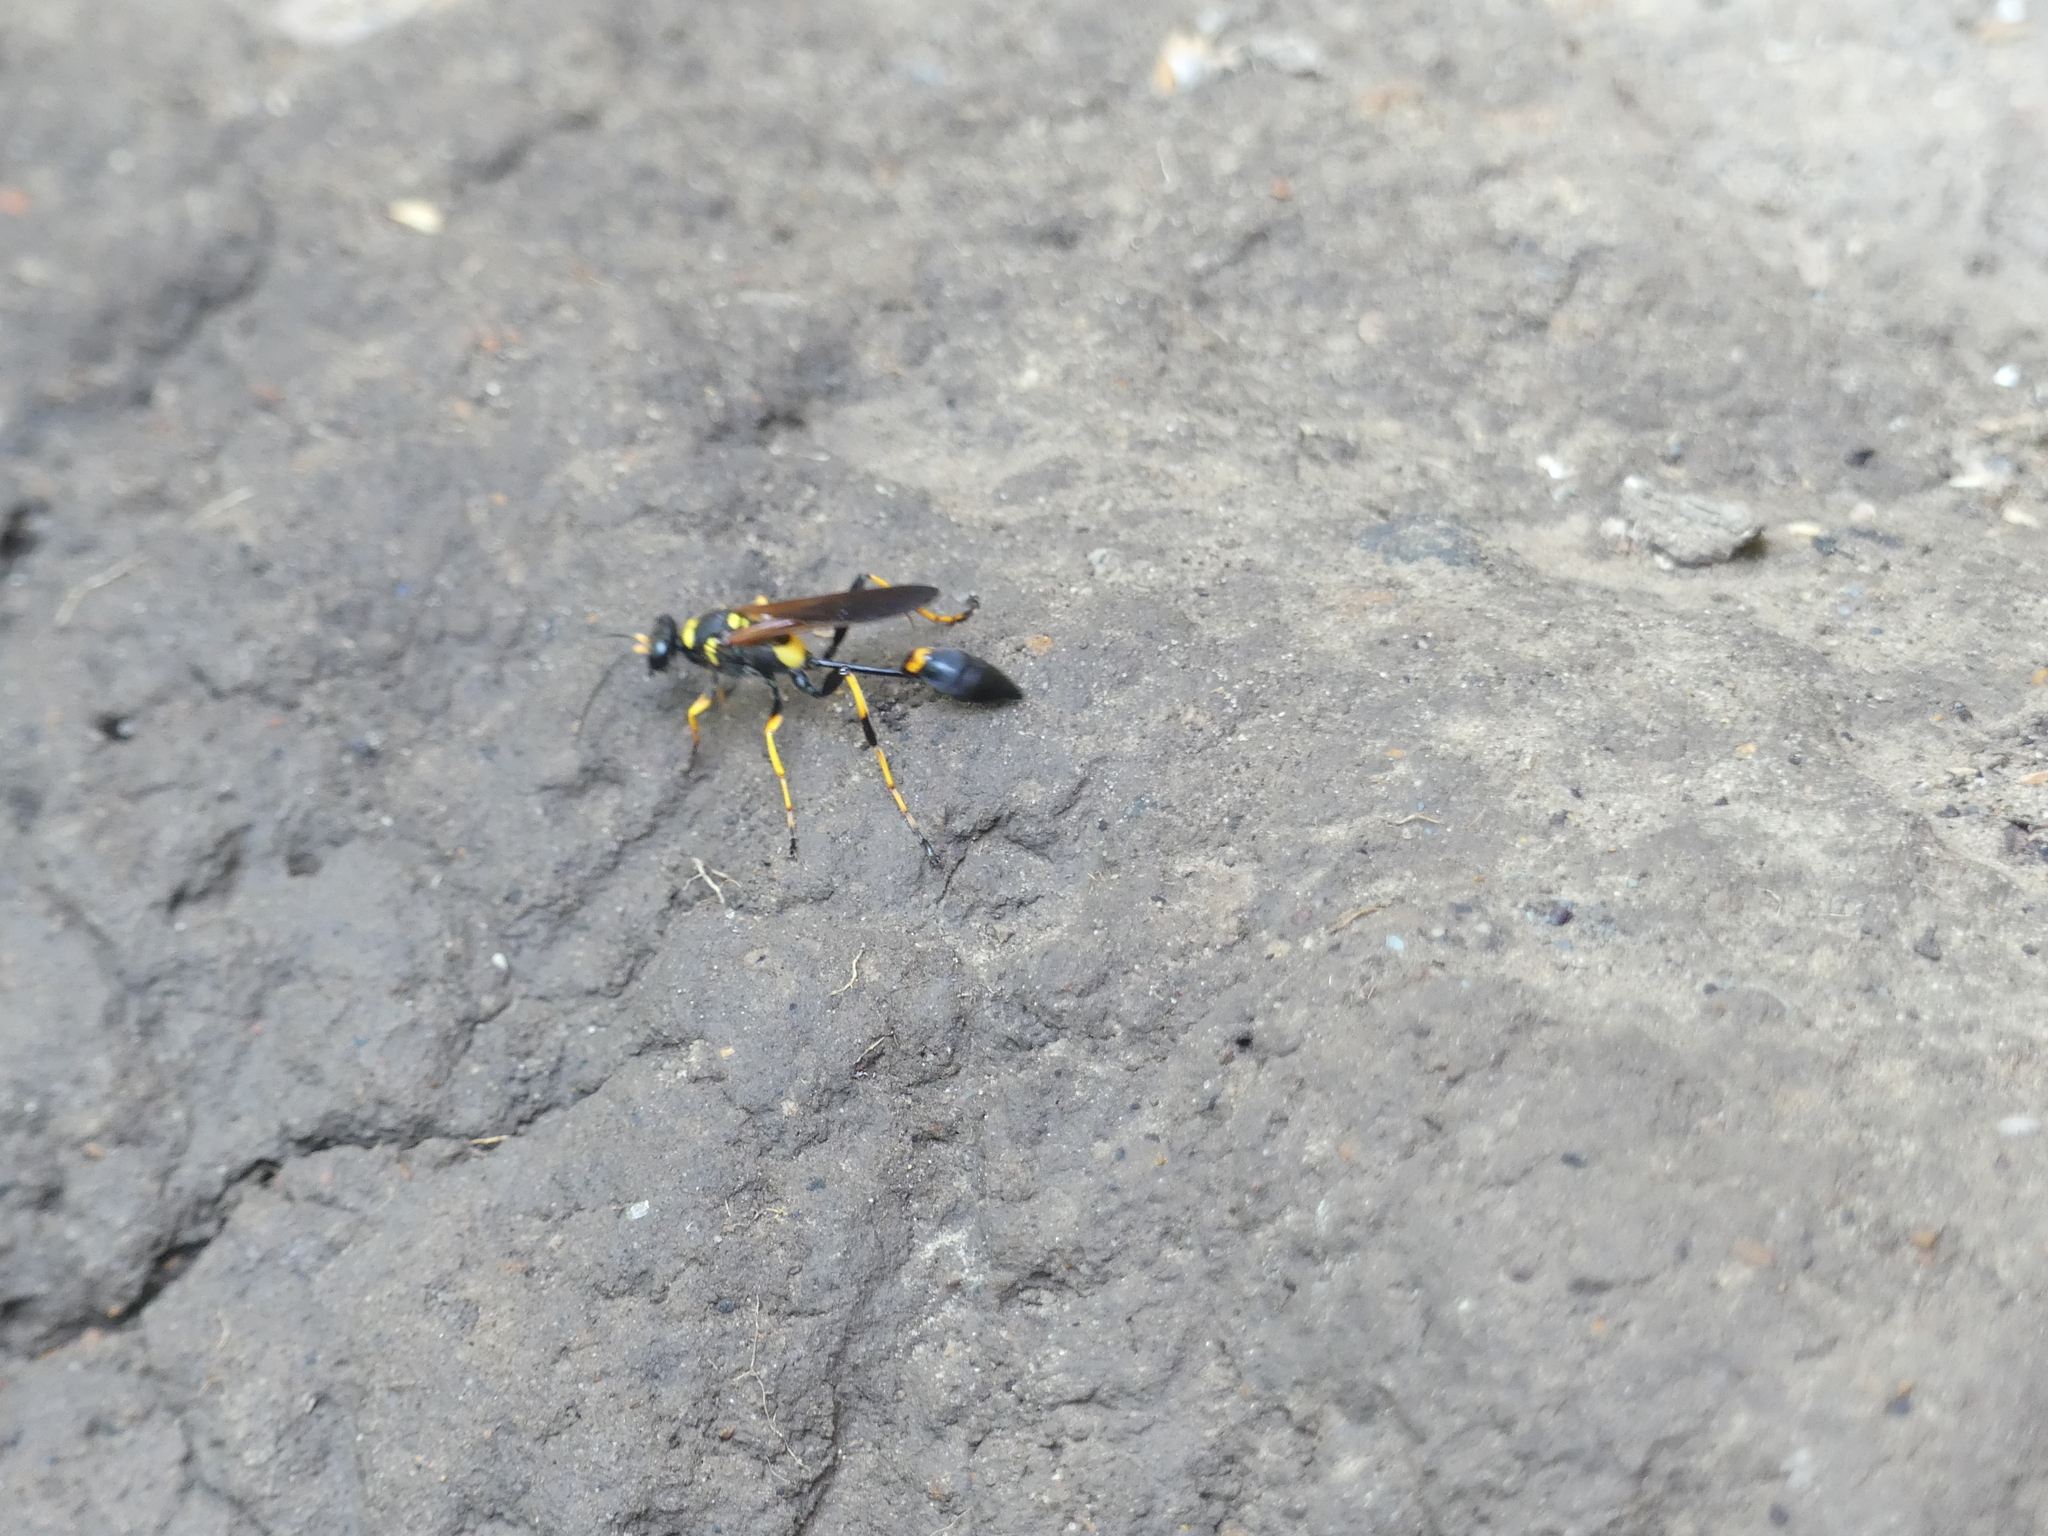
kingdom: Animalia
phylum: Arthropoda
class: Insecta
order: Hymenoptera
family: Sphecidae
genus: Sceliphron
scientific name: Sceliphron caementarium
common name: Mud dauber
